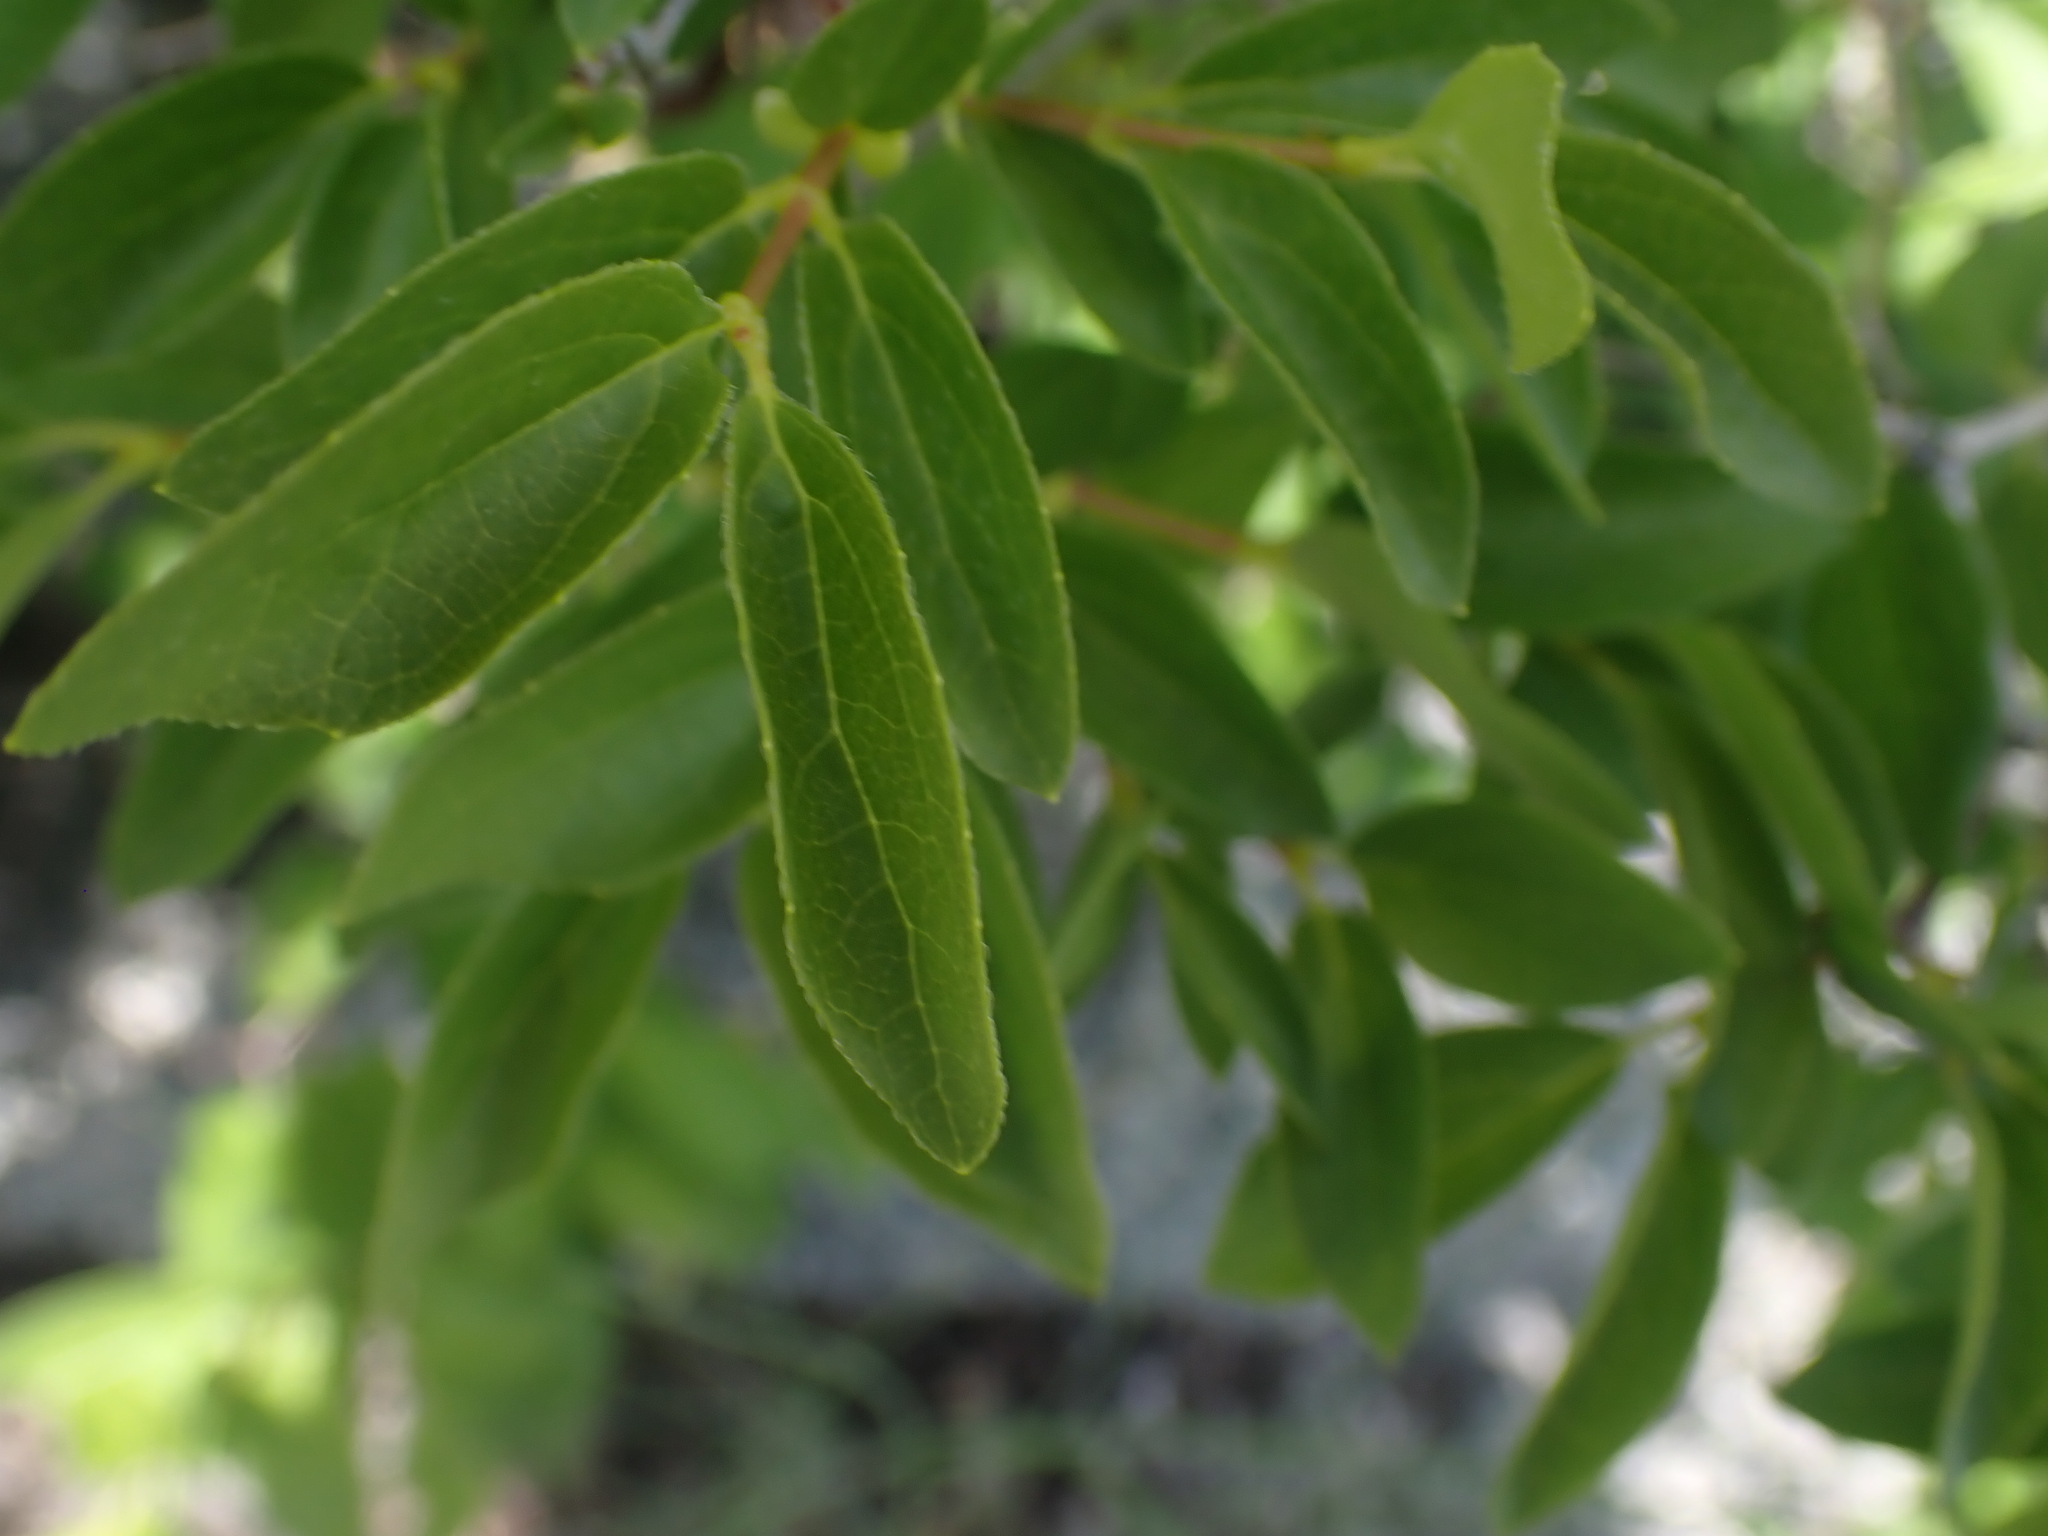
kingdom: Plantae
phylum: Tracheophyta
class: Magnoliopsida
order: Cornales
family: Hydrangeaceae
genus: Philadelphus
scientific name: Philadelphus lewisii
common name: Lewis's mock orange
